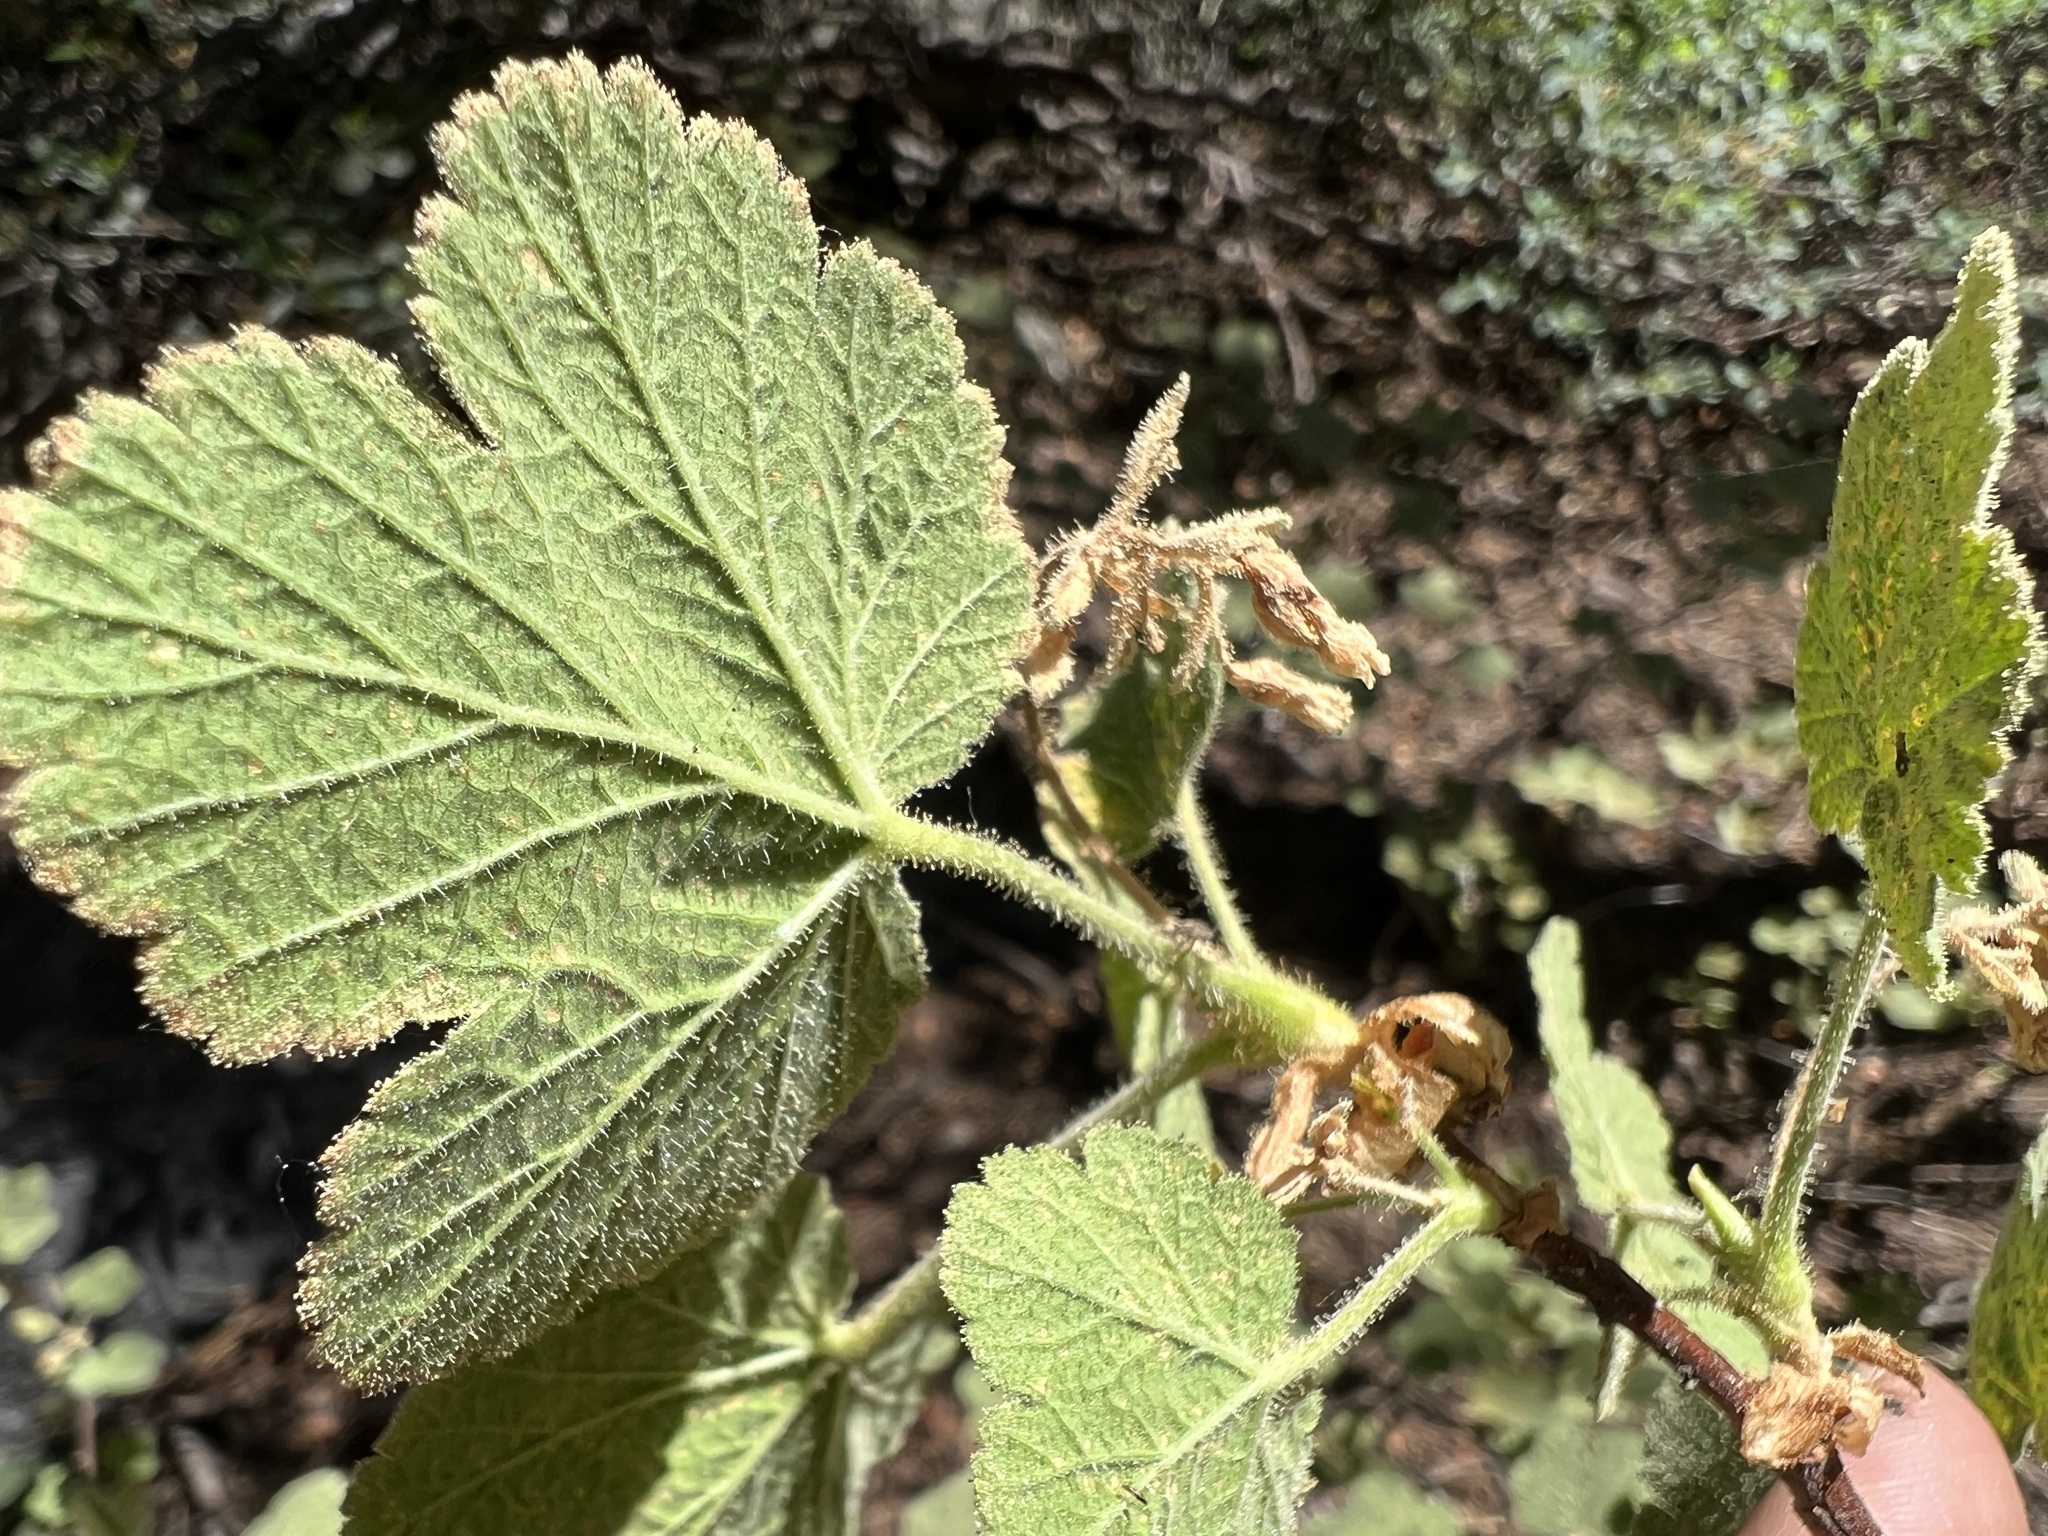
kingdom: Plantae
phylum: Tracheophyta
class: Magnoliopsida
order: Saxifragales
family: Grossulariaceae
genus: Ribes
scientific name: Ribes viscosissimum
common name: Sticky currant
